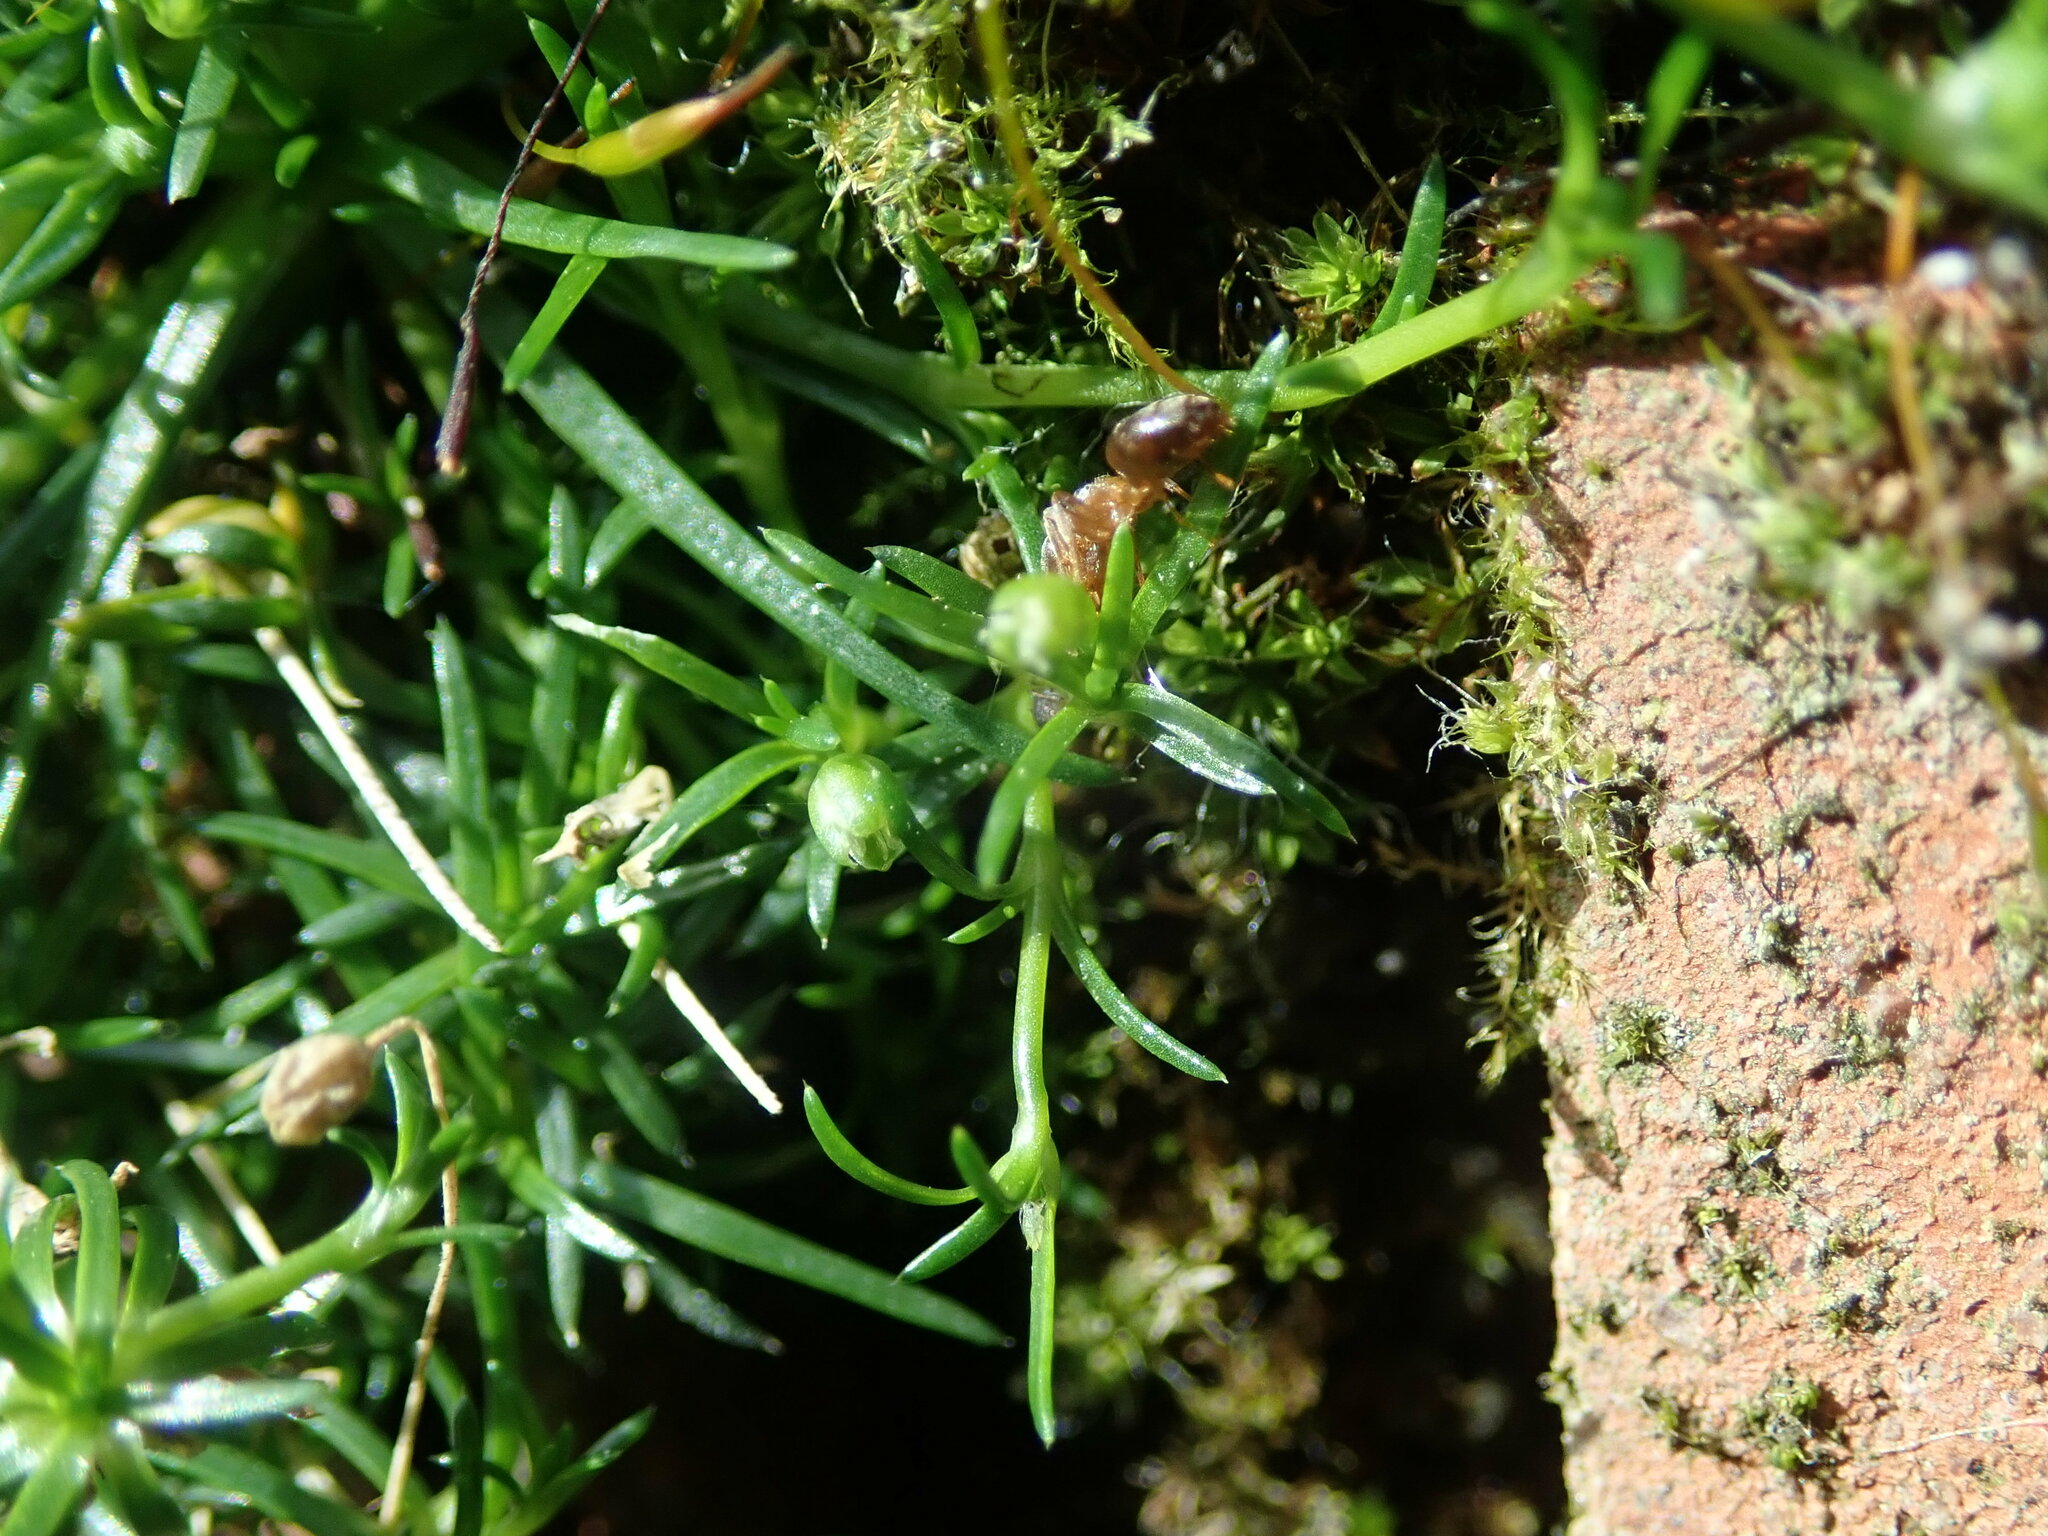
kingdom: Plantae
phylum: Tracheophyta
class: Magnoliopsida
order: Caryophyllales
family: Caryophyllaceae
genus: Sagina
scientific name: Sagina procumbens
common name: Procumbent pearlwort
